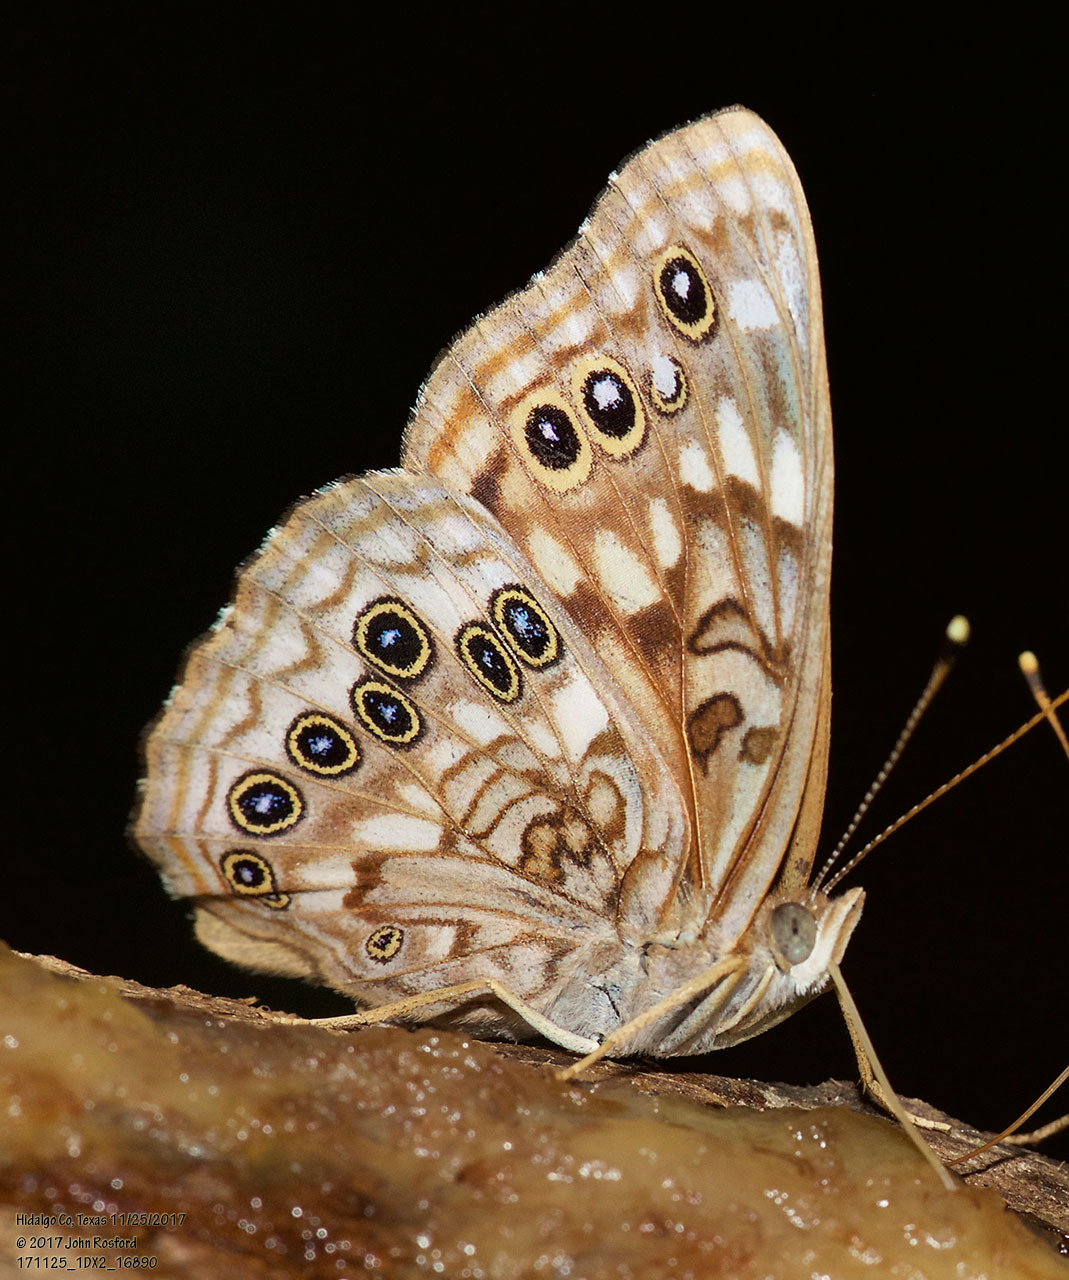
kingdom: Animalia
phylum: Arthropoda
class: Insecta
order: Lepidoptera
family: Nymphalidae
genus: Asterocampa
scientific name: Asterocampa celtis
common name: Hackberry emperor
